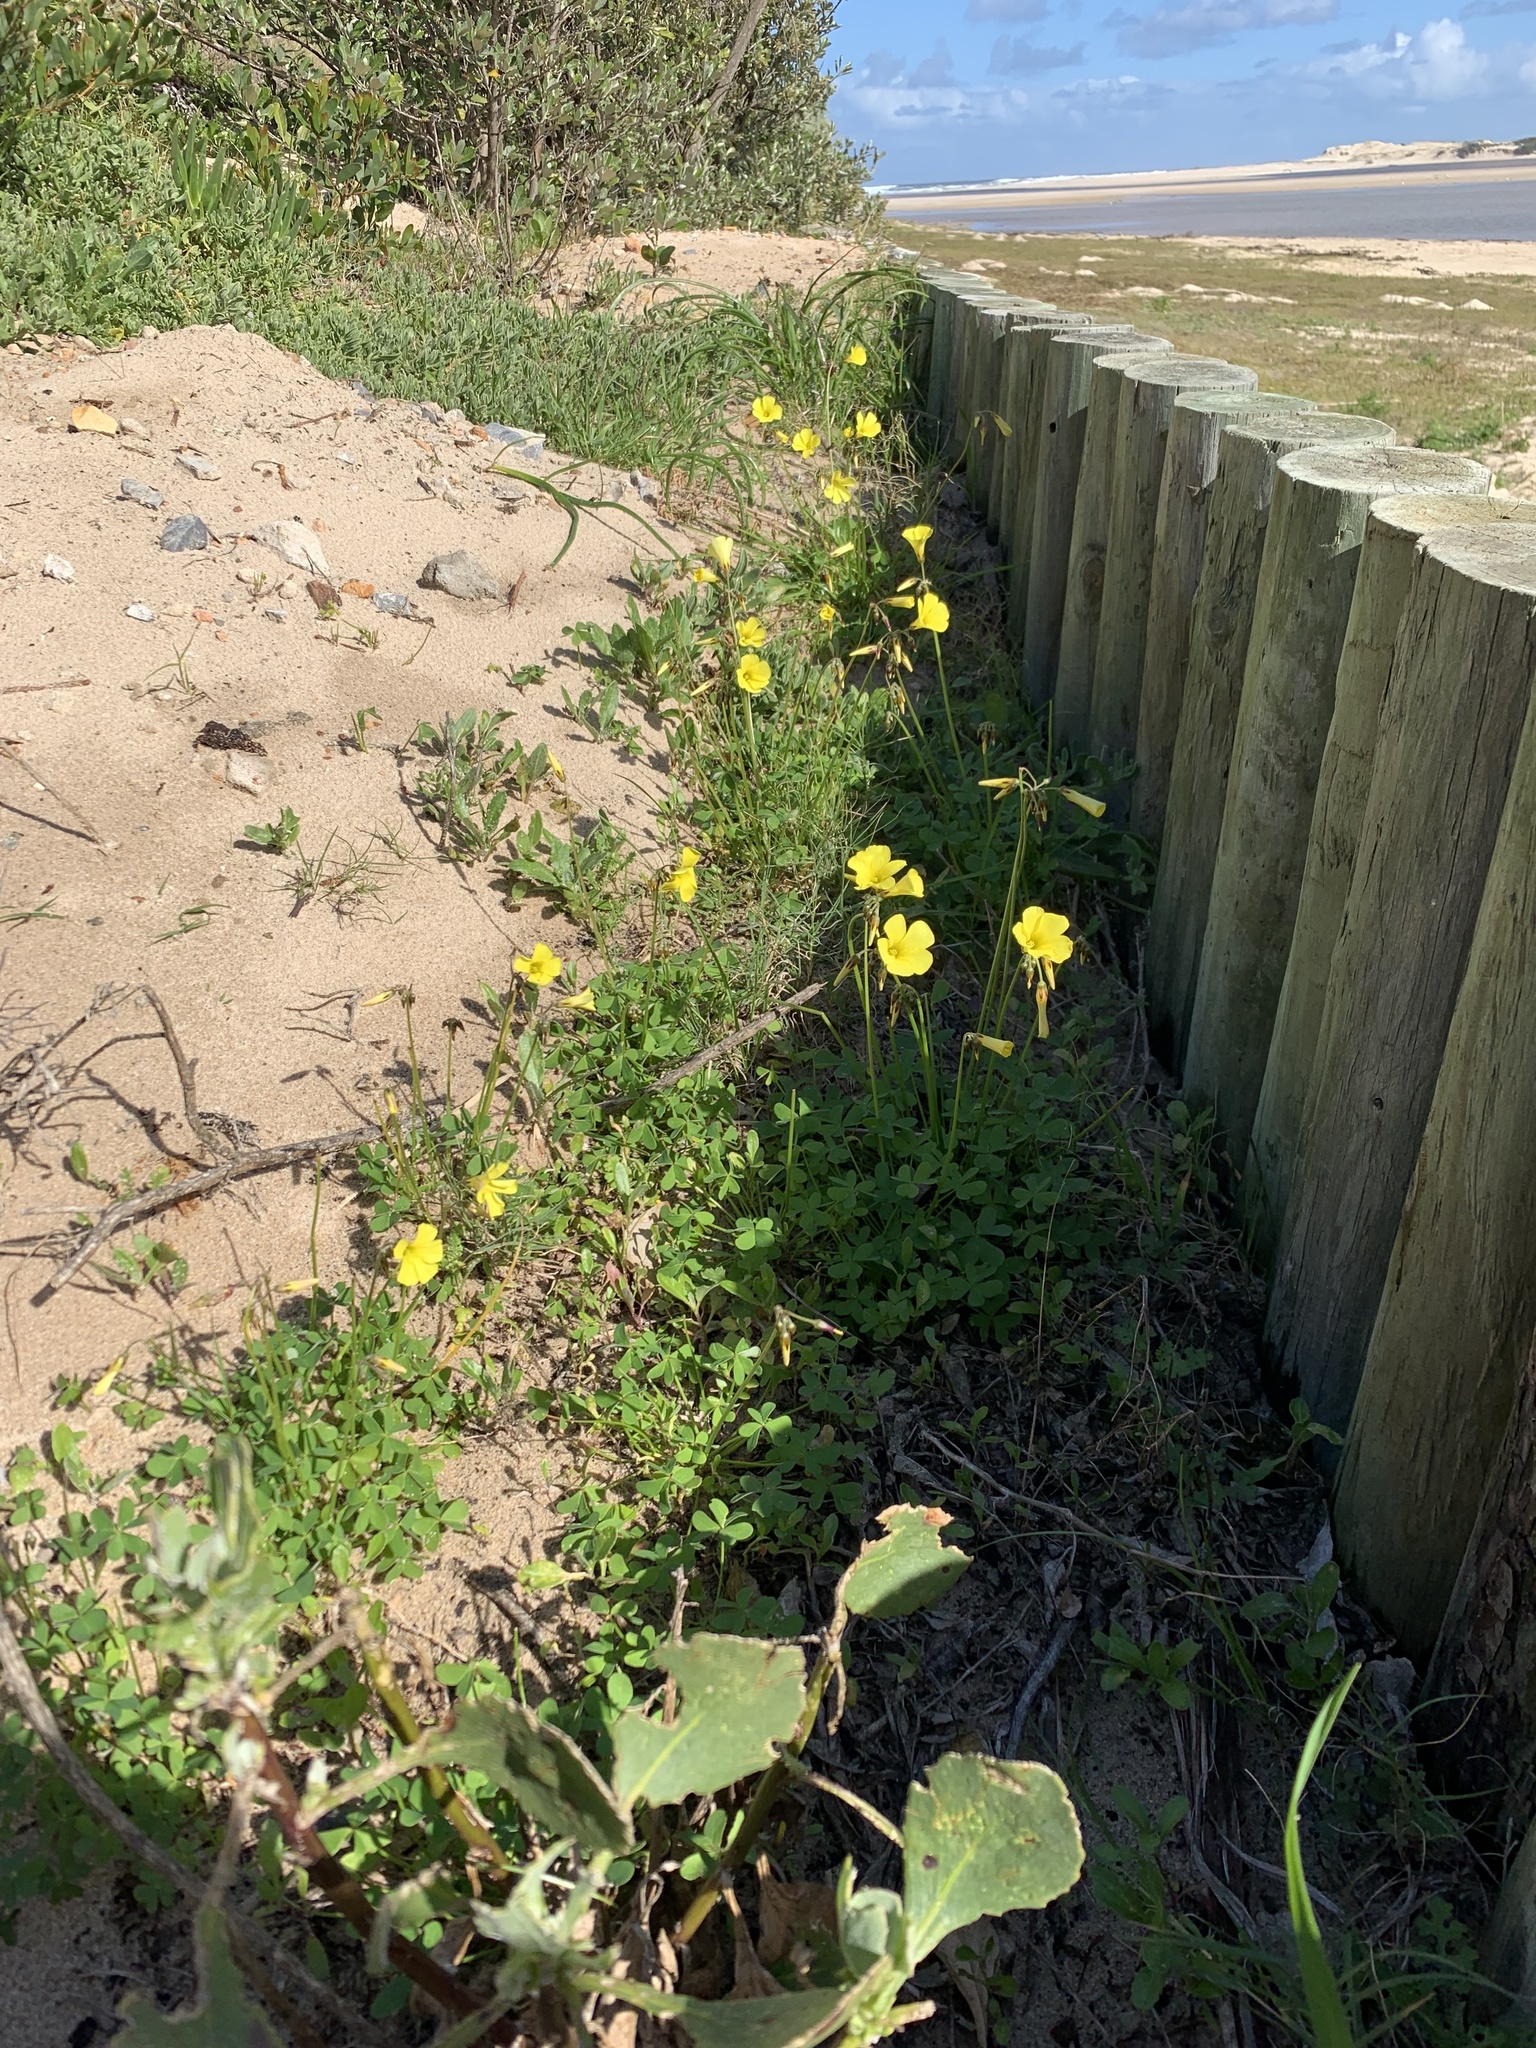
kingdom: Plantae
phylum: Tracheophyta
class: Magnoliopsida
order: Oxalidales
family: Oxalidaceae
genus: Oxalis
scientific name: Oxalis pes-caprae
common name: Bermuda-buttercup
